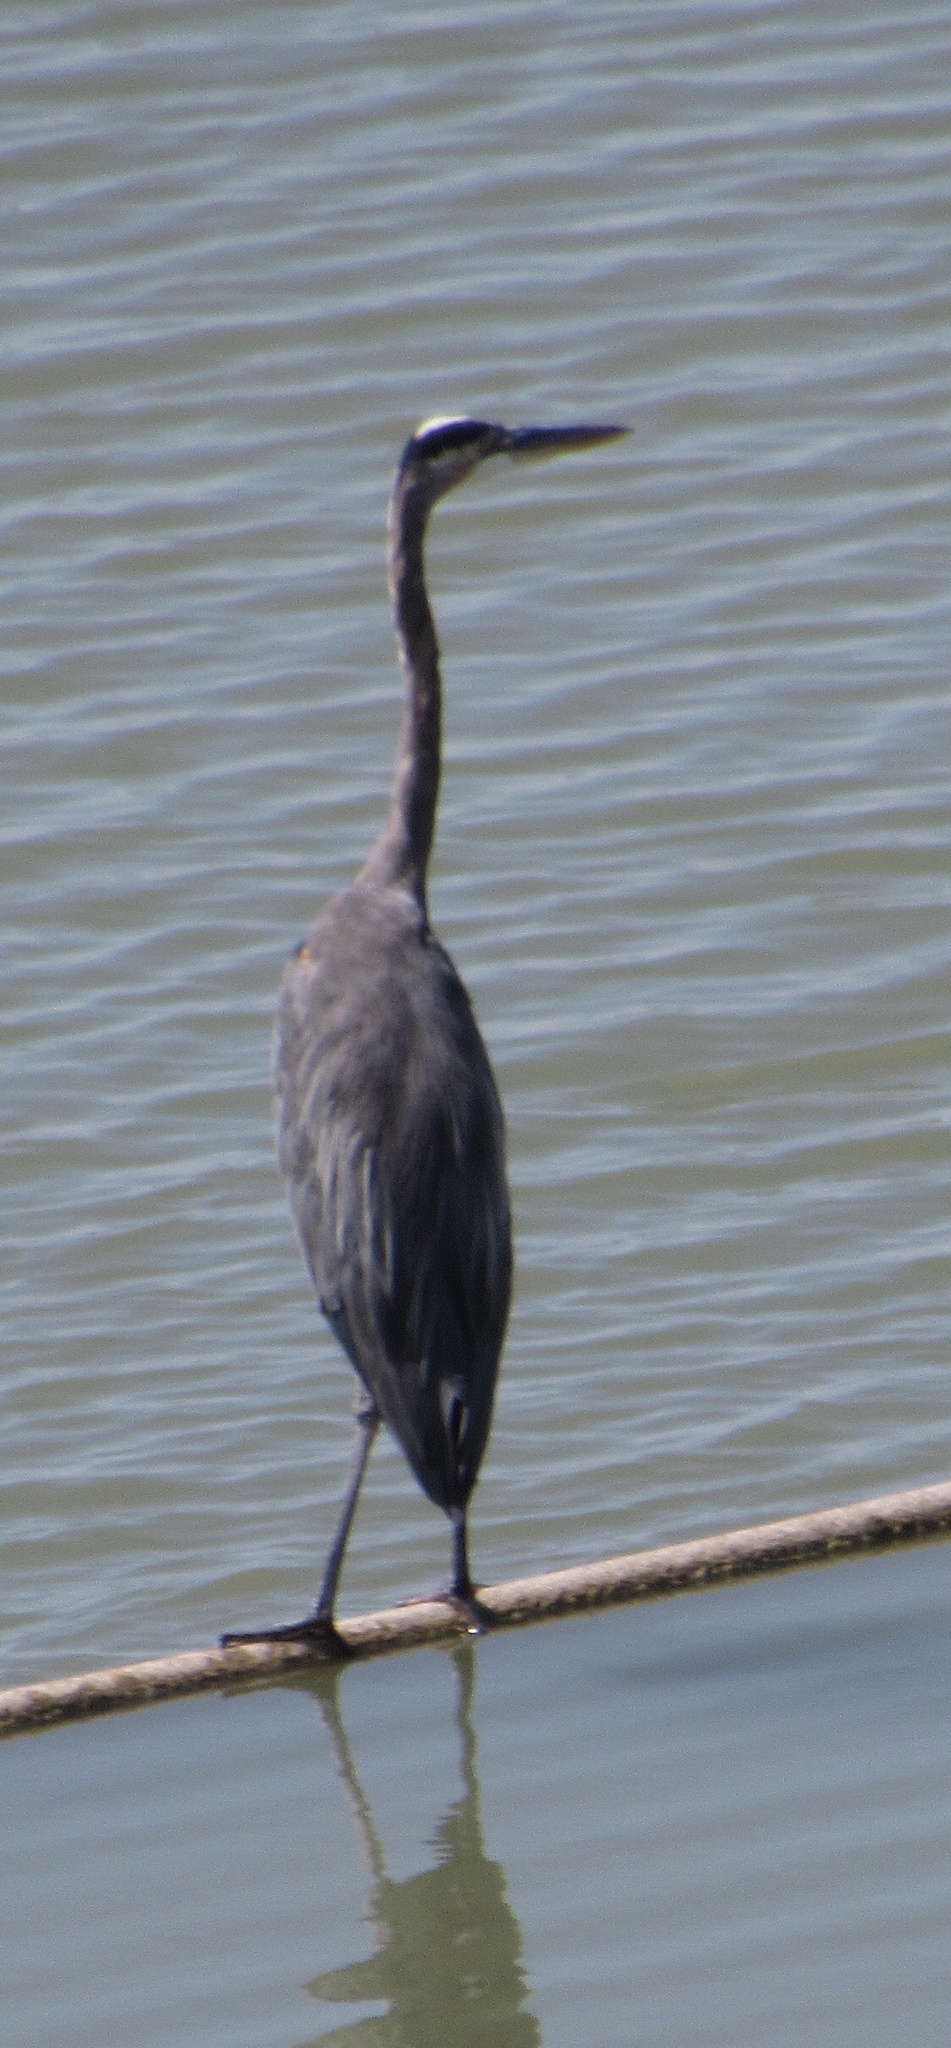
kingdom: Animalia
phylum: Chordata
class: Aves
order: Pelecaniformes
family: Ardeidae
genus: Ardea
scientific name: Ardea herodias
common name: Great blue heron
